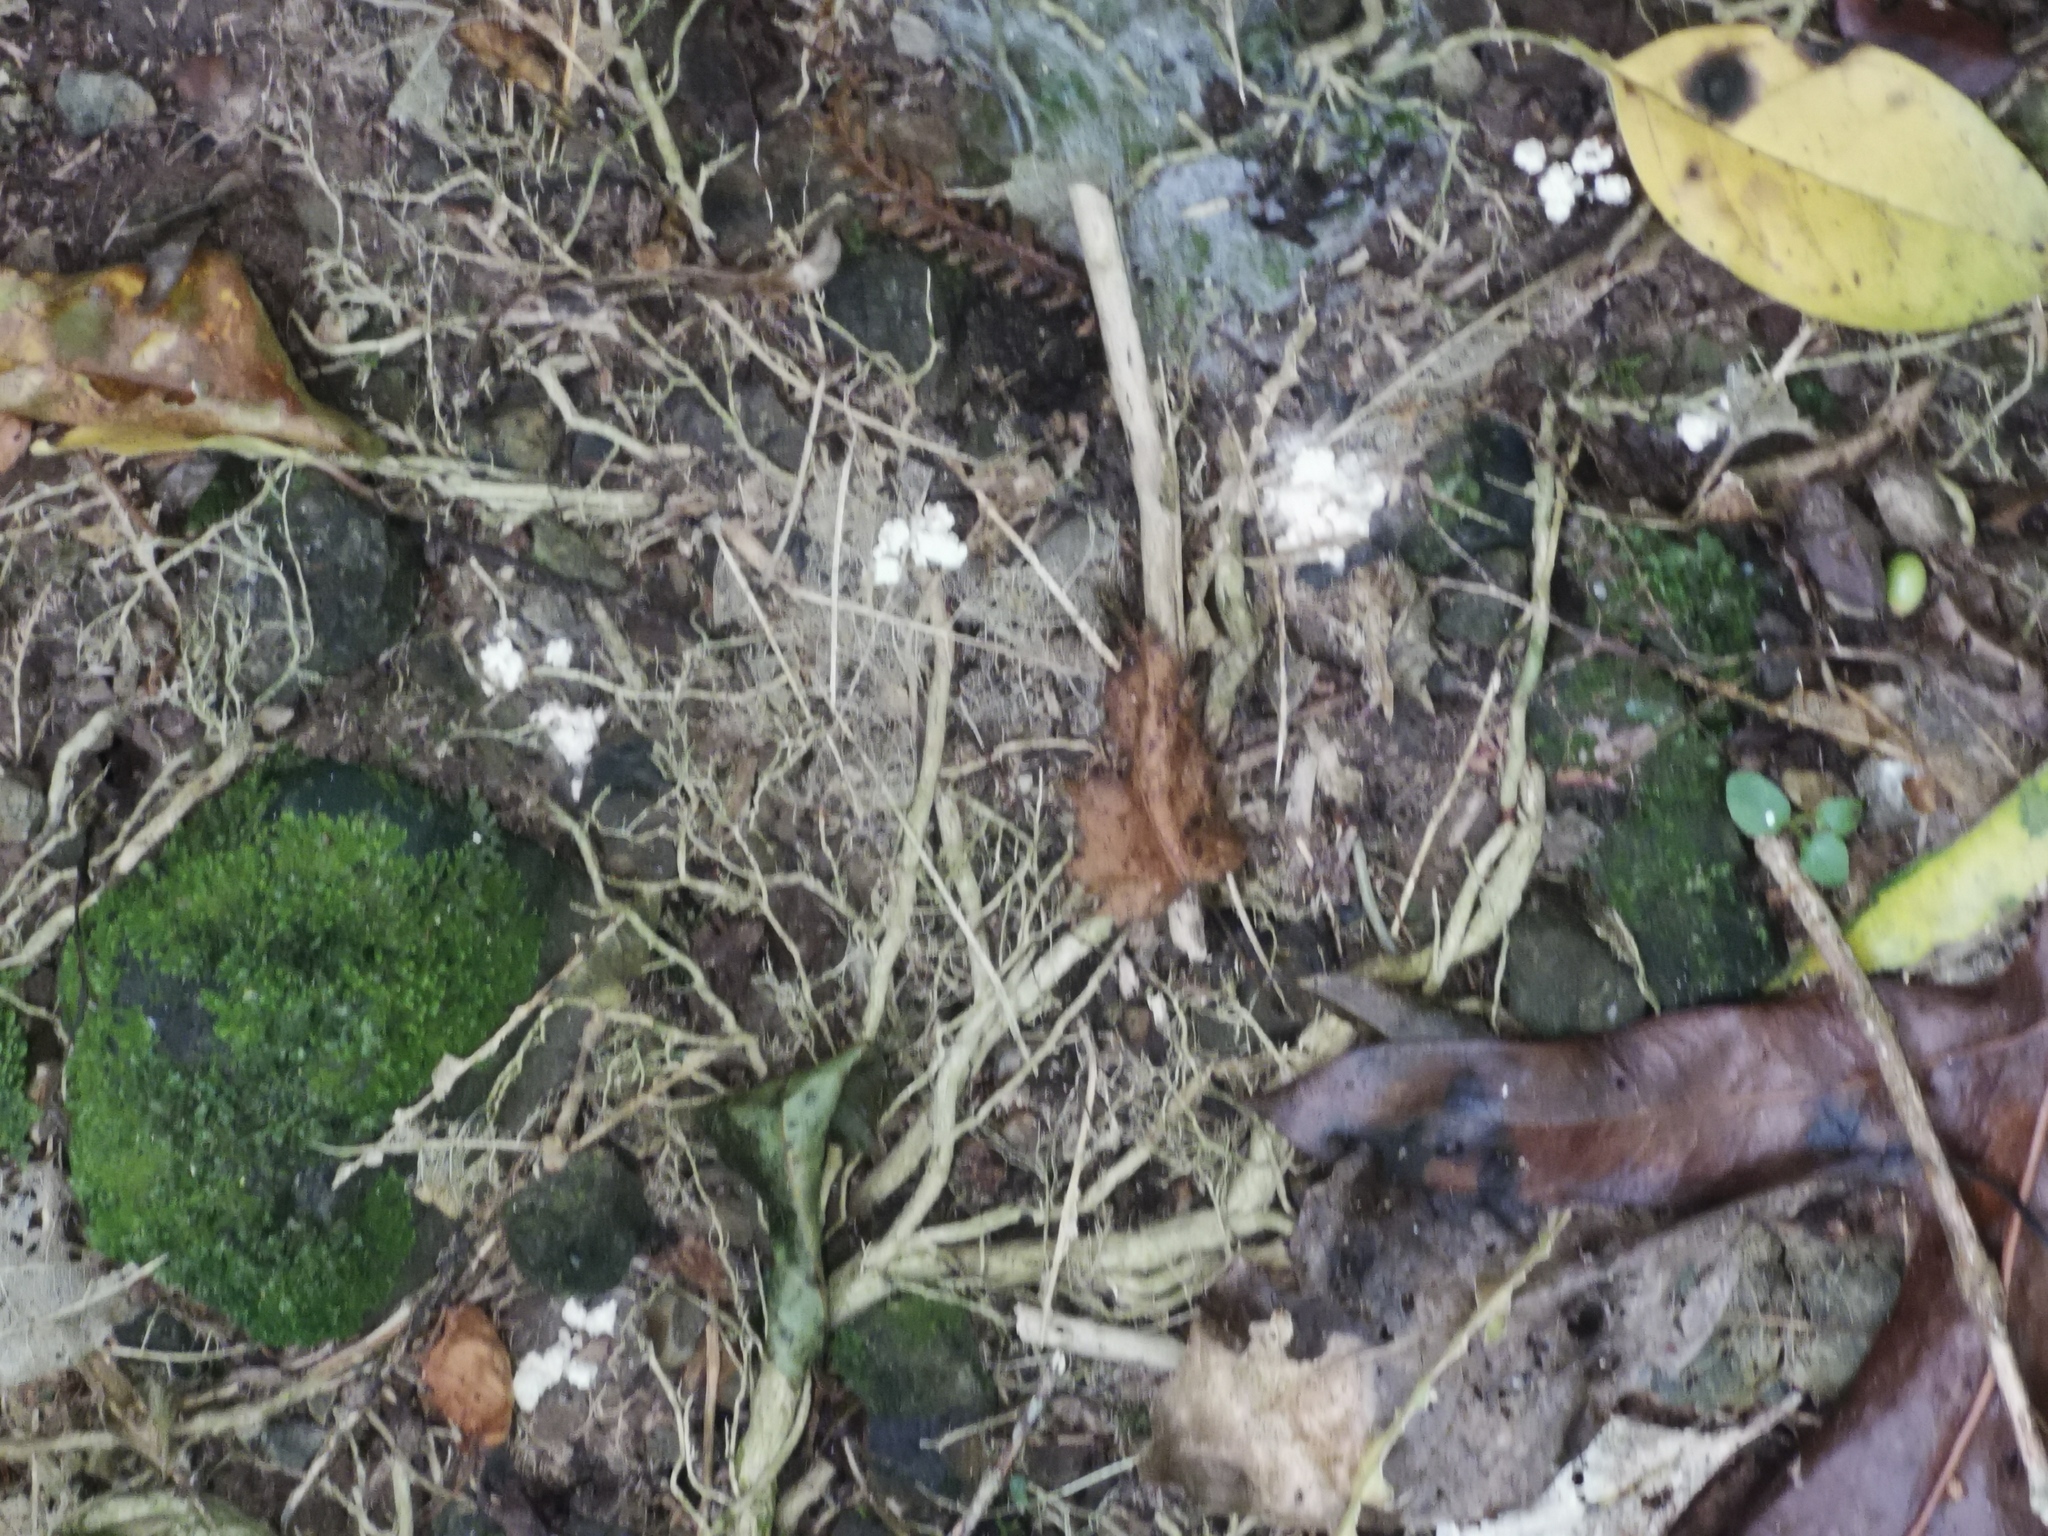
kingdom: Fungi
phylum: Ascomycota
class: Sordariomycetes
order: Hypocreales
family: Cordycipitaceae
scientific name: Cordycipitaceae
